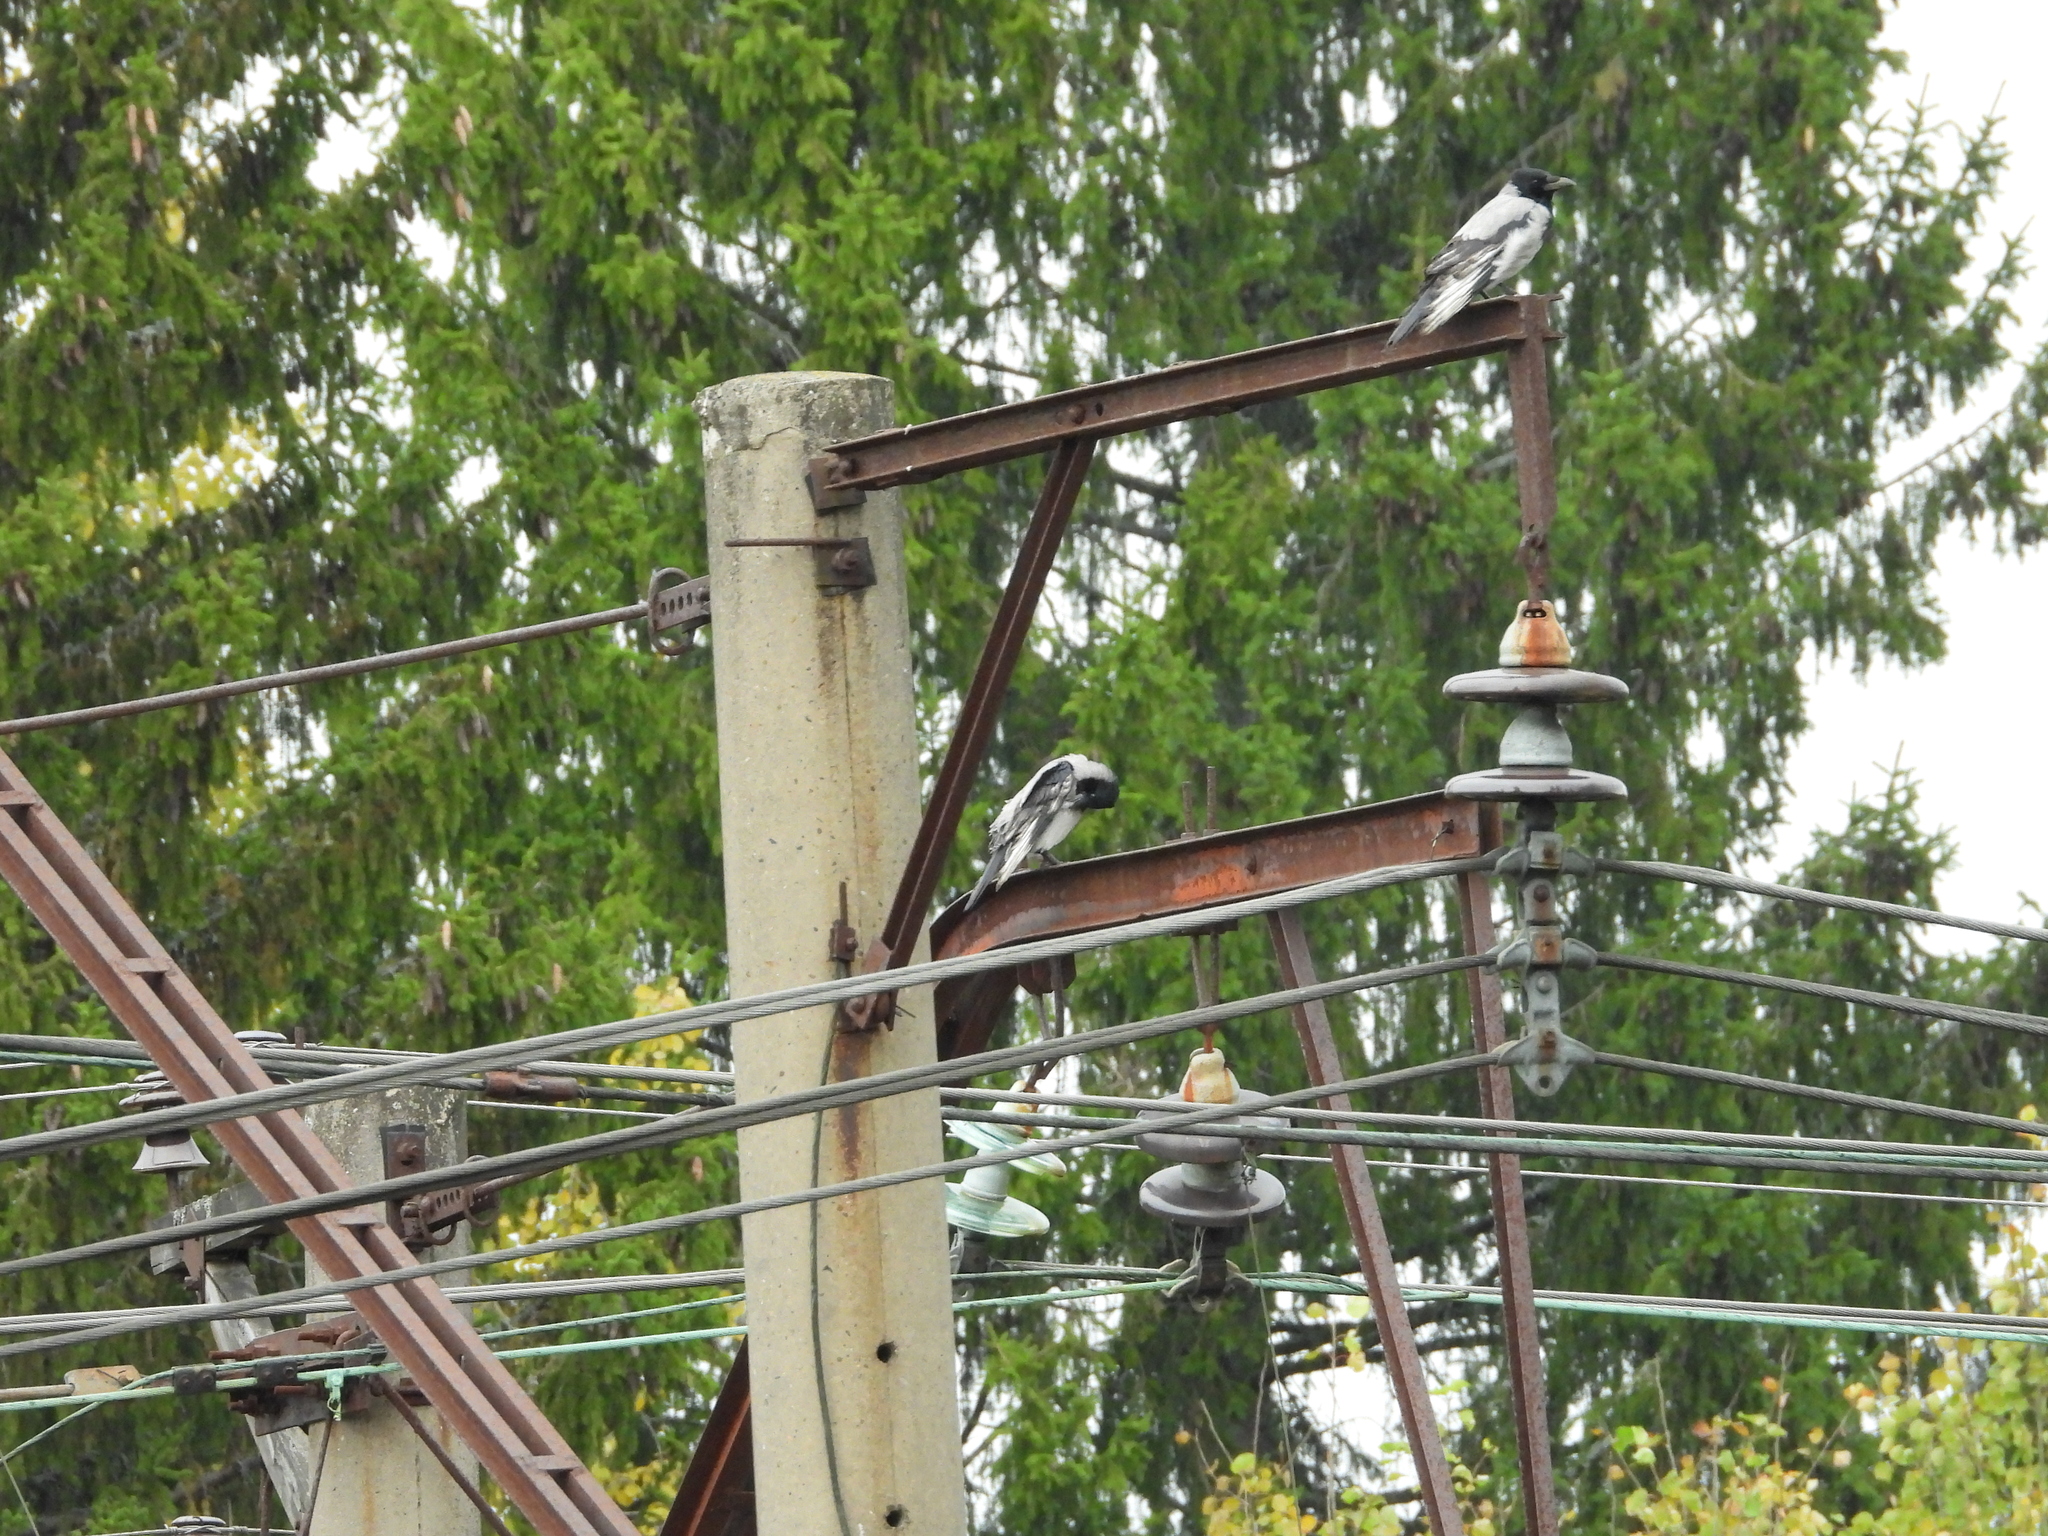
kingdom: Animalia
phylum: Chordata
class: Aves
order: Passeriformes
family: Corvidae
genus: Corvus
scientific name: Corvus cornix
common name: Hooded crow
